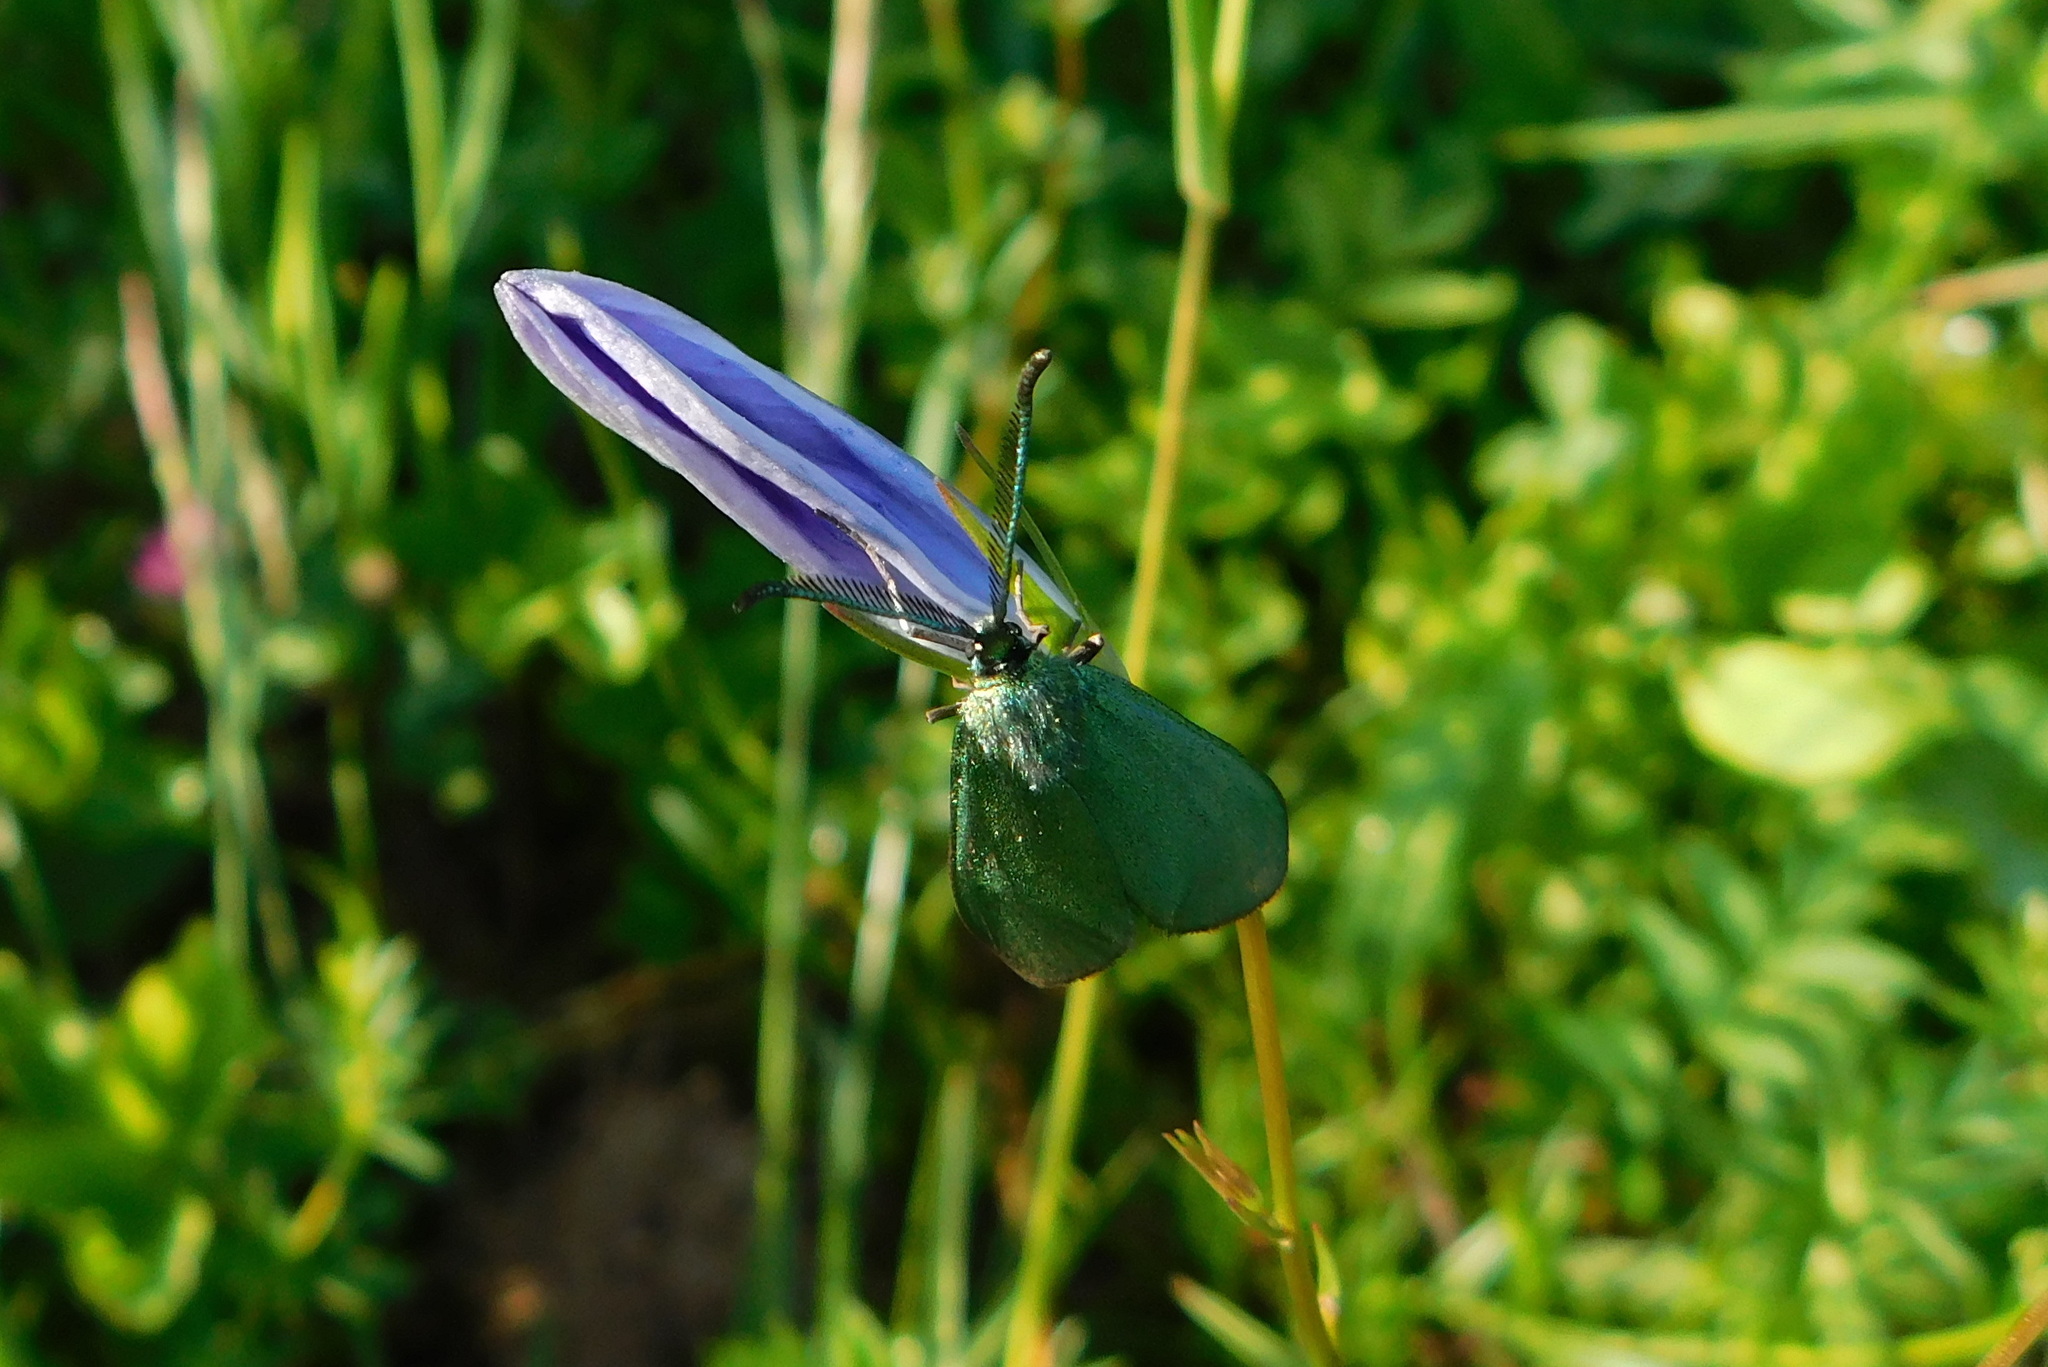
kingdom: Animalia
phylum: Arthropoda
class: Insecta
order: Lepidoptera
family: Zygaenidae
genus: Adscita
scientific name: Adscita statices
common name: Forester
